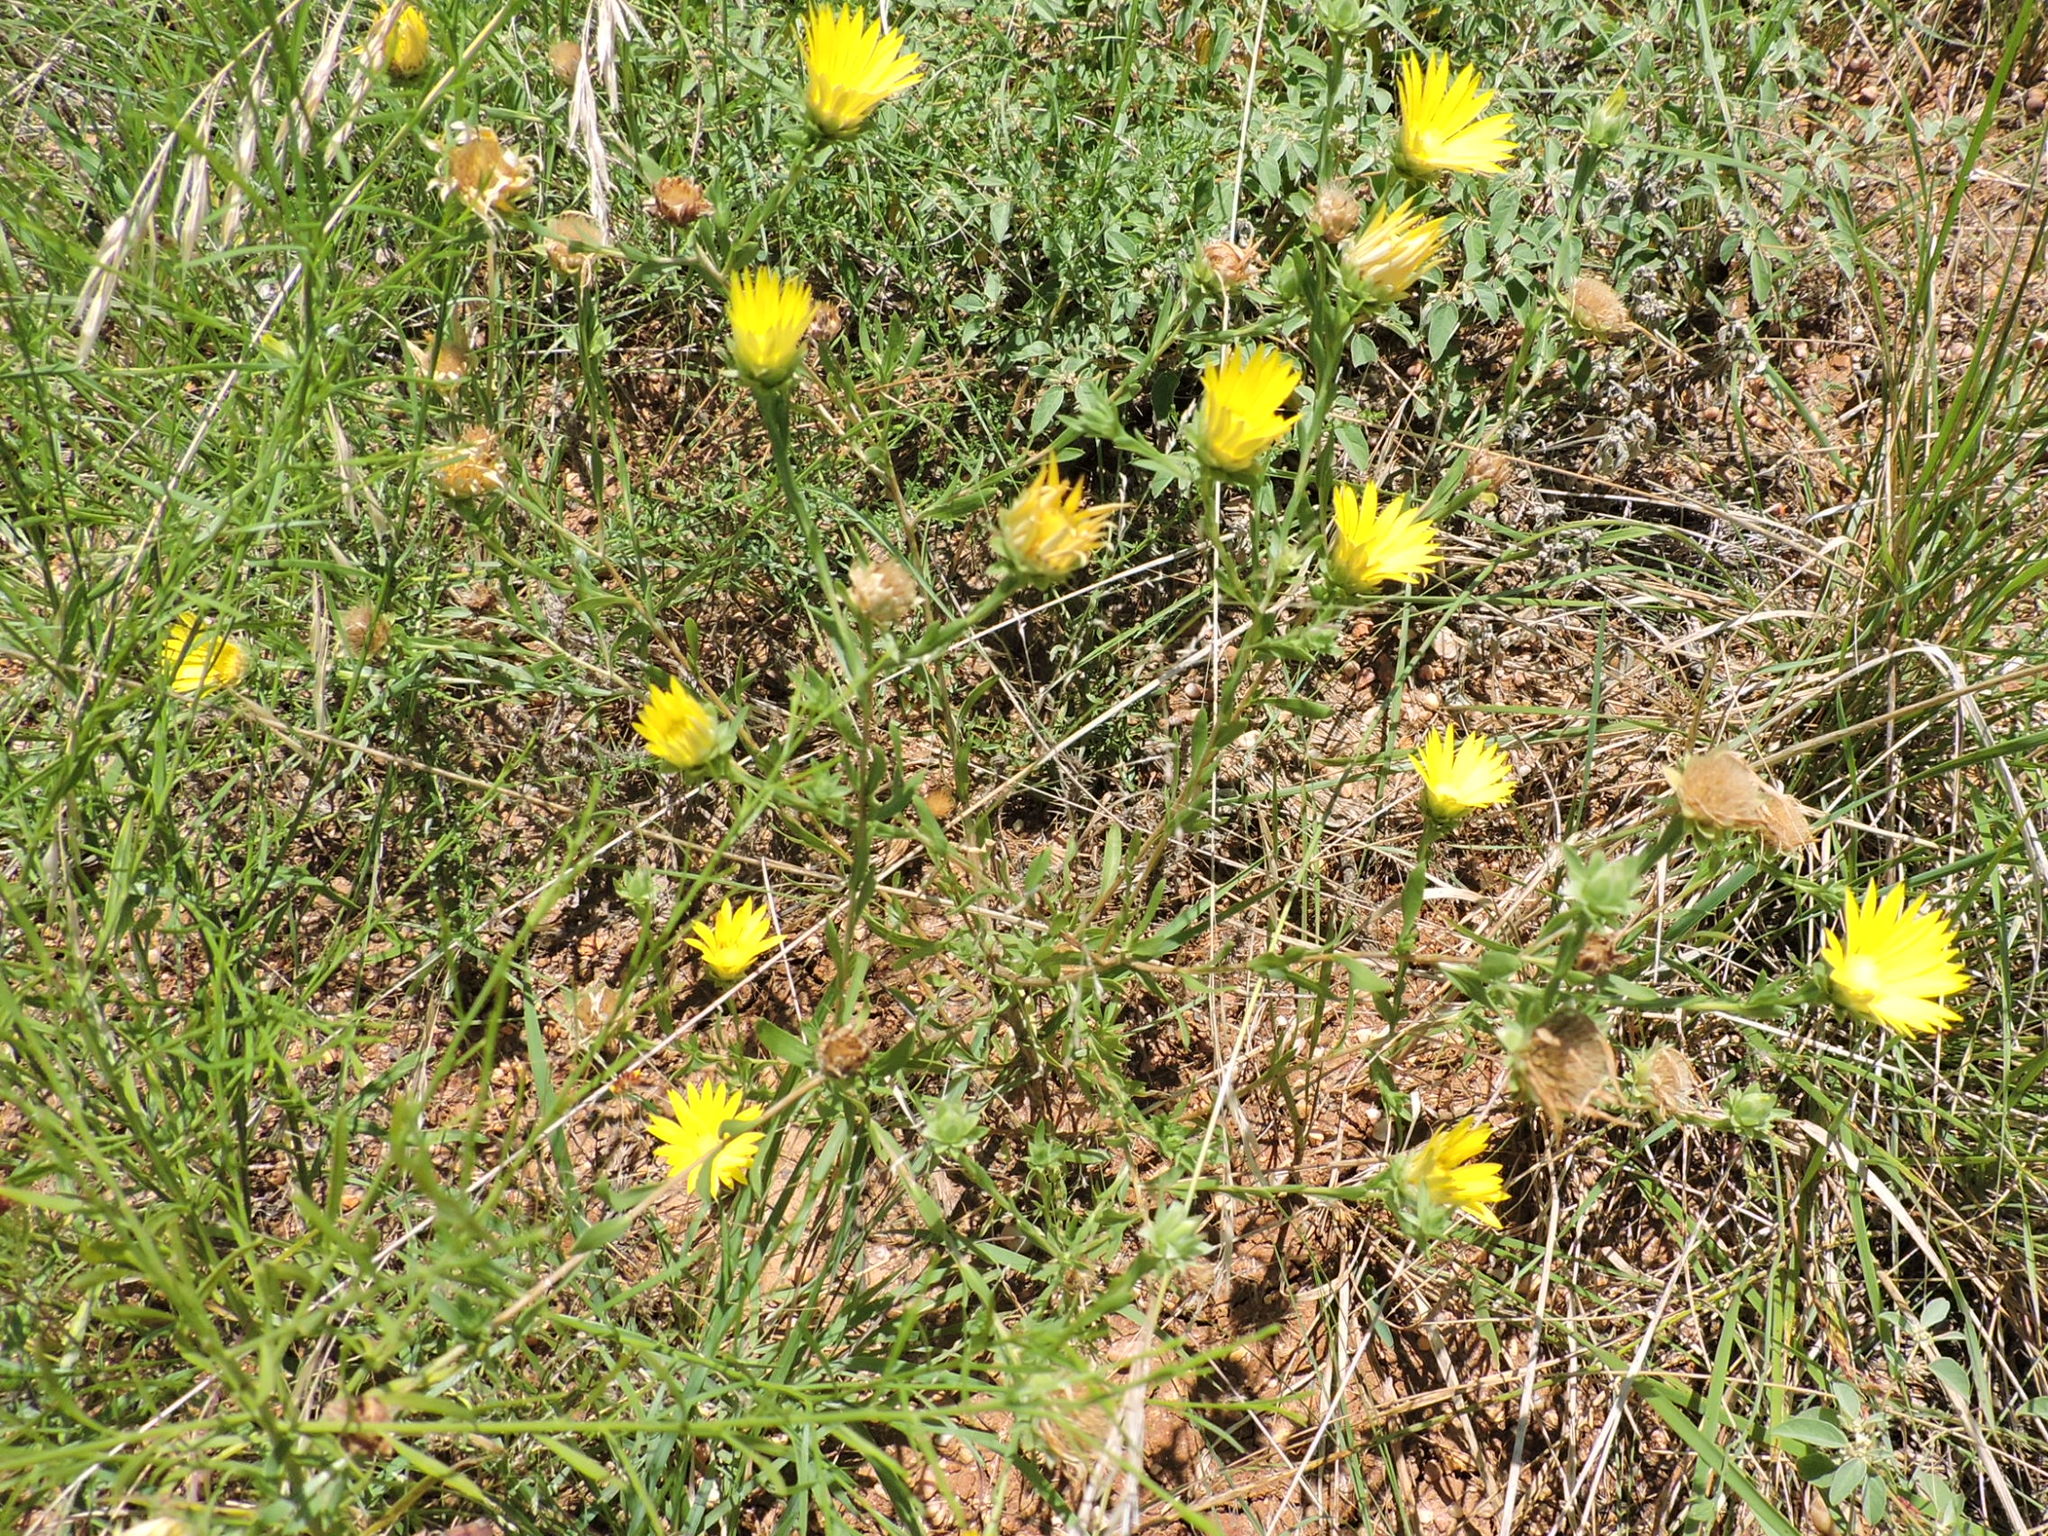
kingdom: Plantae
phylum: Tracheophyta
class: Magnoliopsida
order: Asterales
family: Asteraceae
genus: Xanthisma
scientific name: Xanthisma texanum
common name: Texas sleepy daisy
